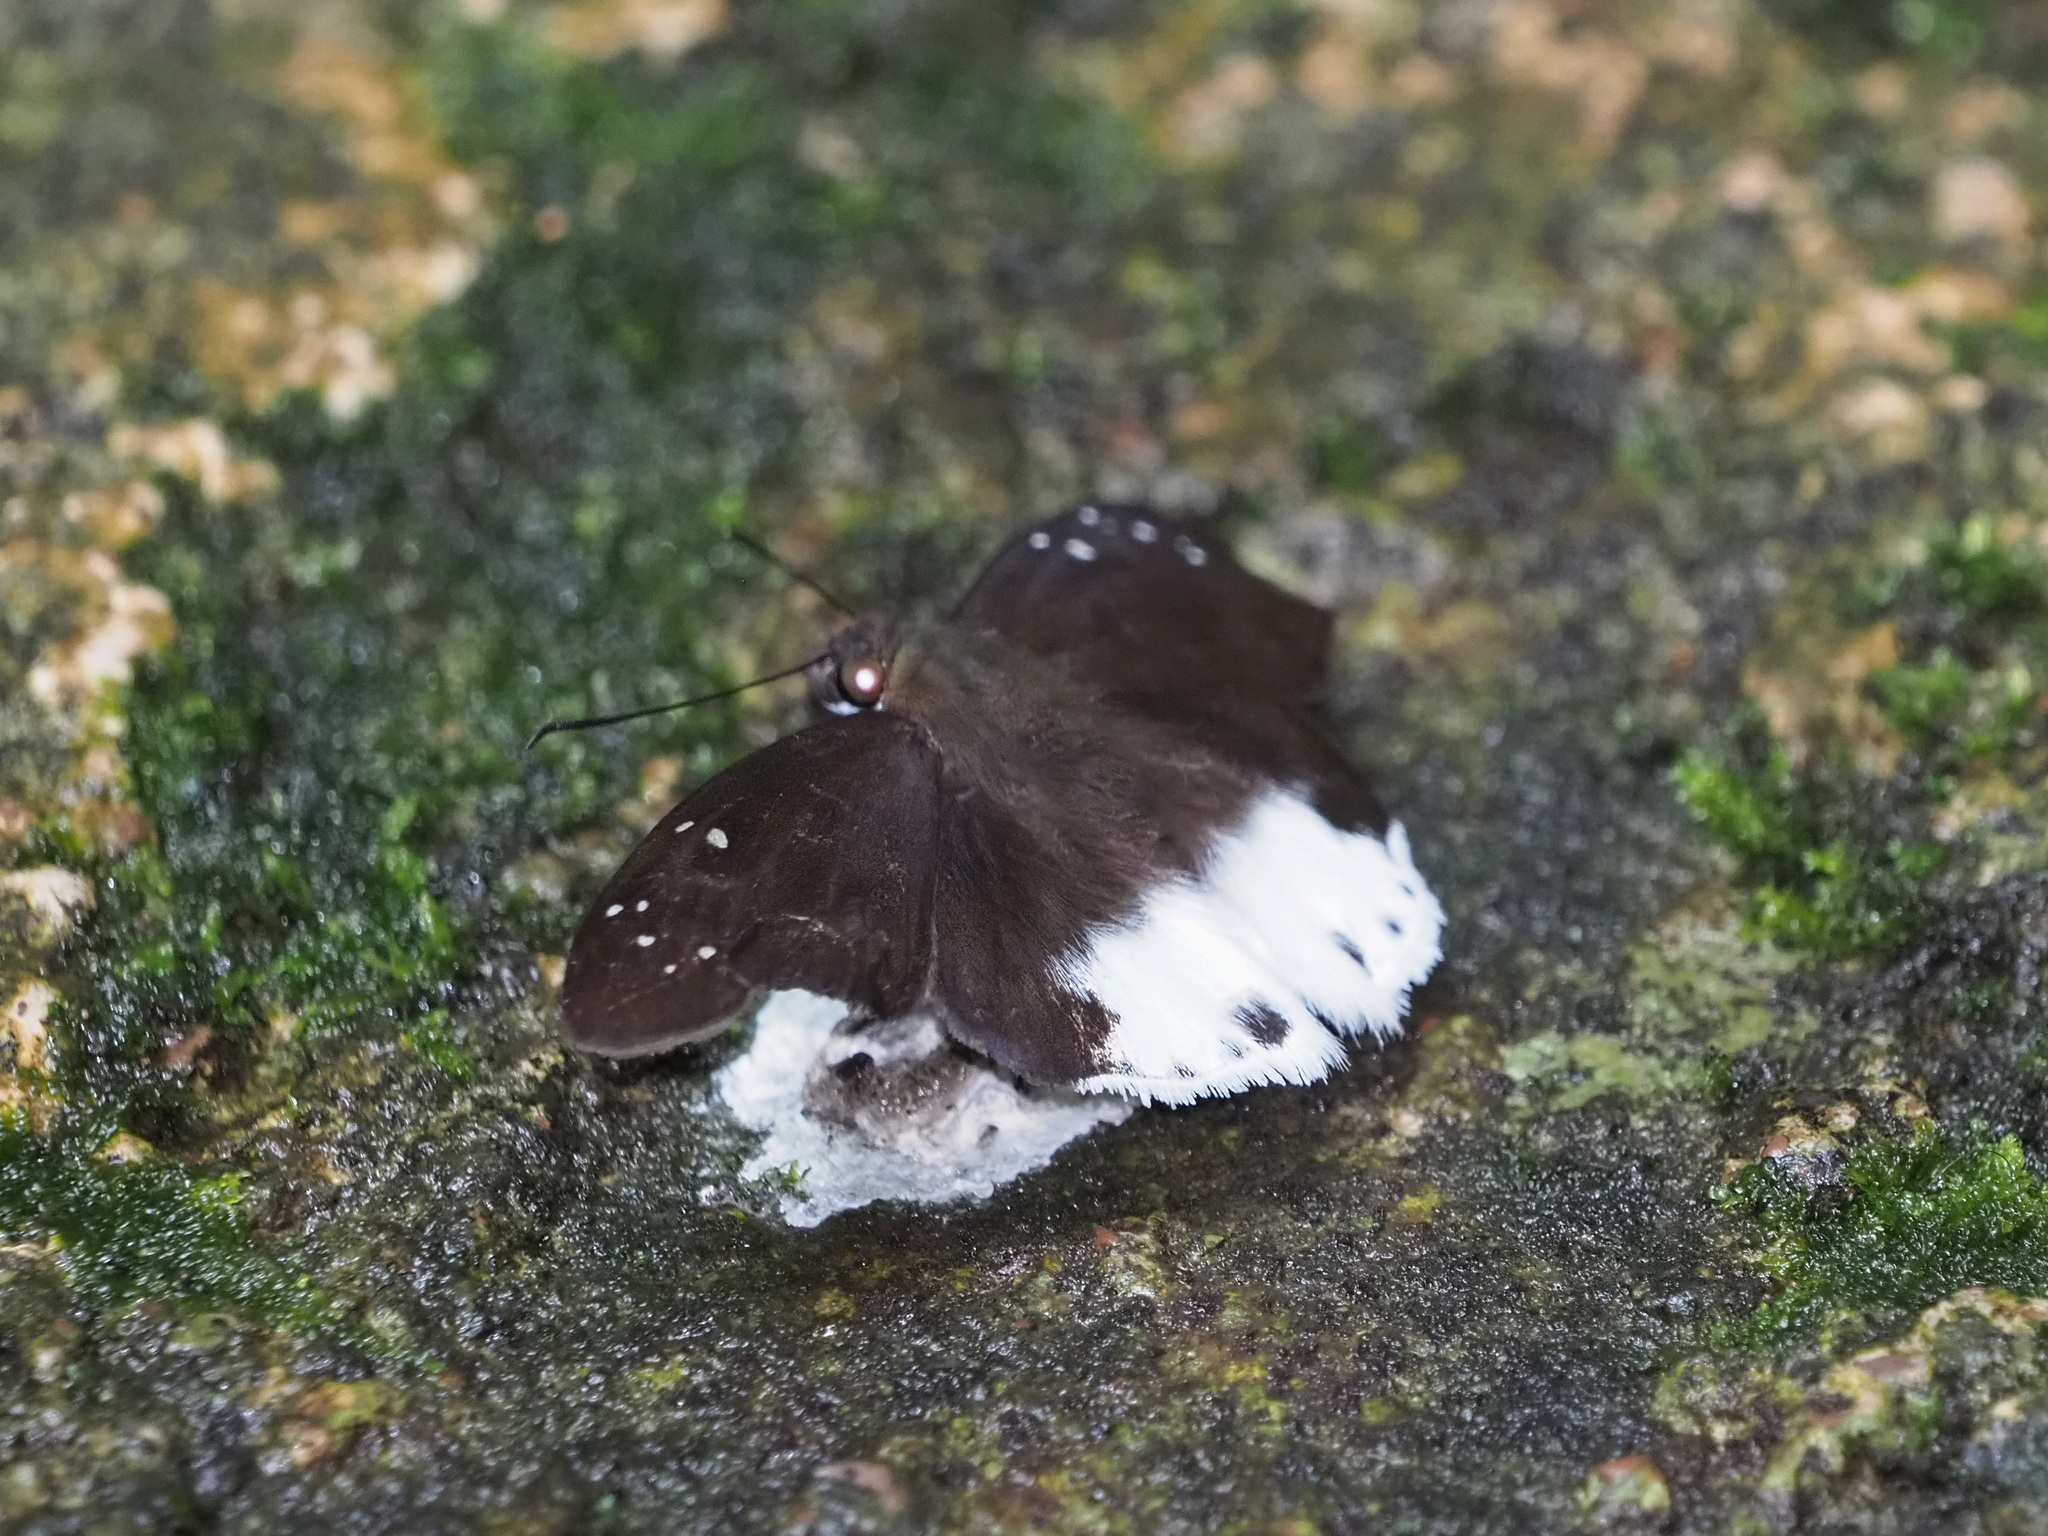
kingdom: Animalia
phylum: Arthropoda
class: Insecta
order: Lepidoptera
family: Hesperiidae
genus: Tagiades
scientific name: Tagiades waterstradti
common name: Waterstradt snow flat
